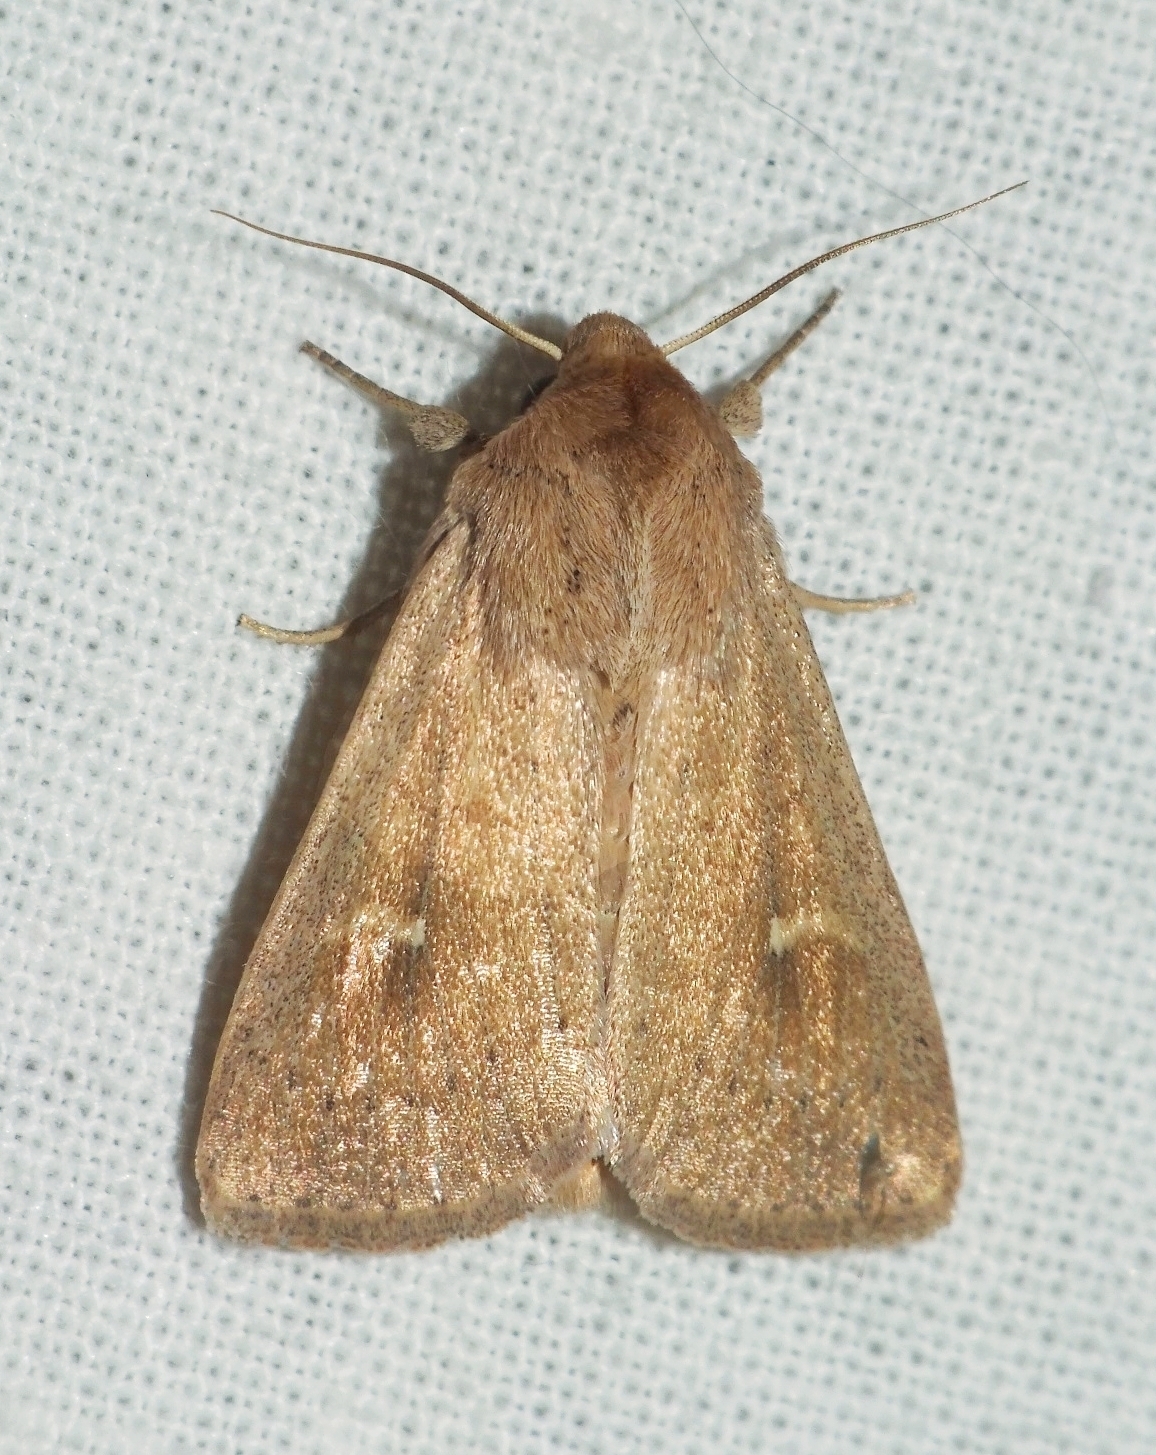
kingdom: Animalia
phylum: Arthropoda
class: Insecta
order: Lepidoptera
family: Noctuidae
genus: Mythimna
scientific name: Mythimna ferrago
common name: Clay
